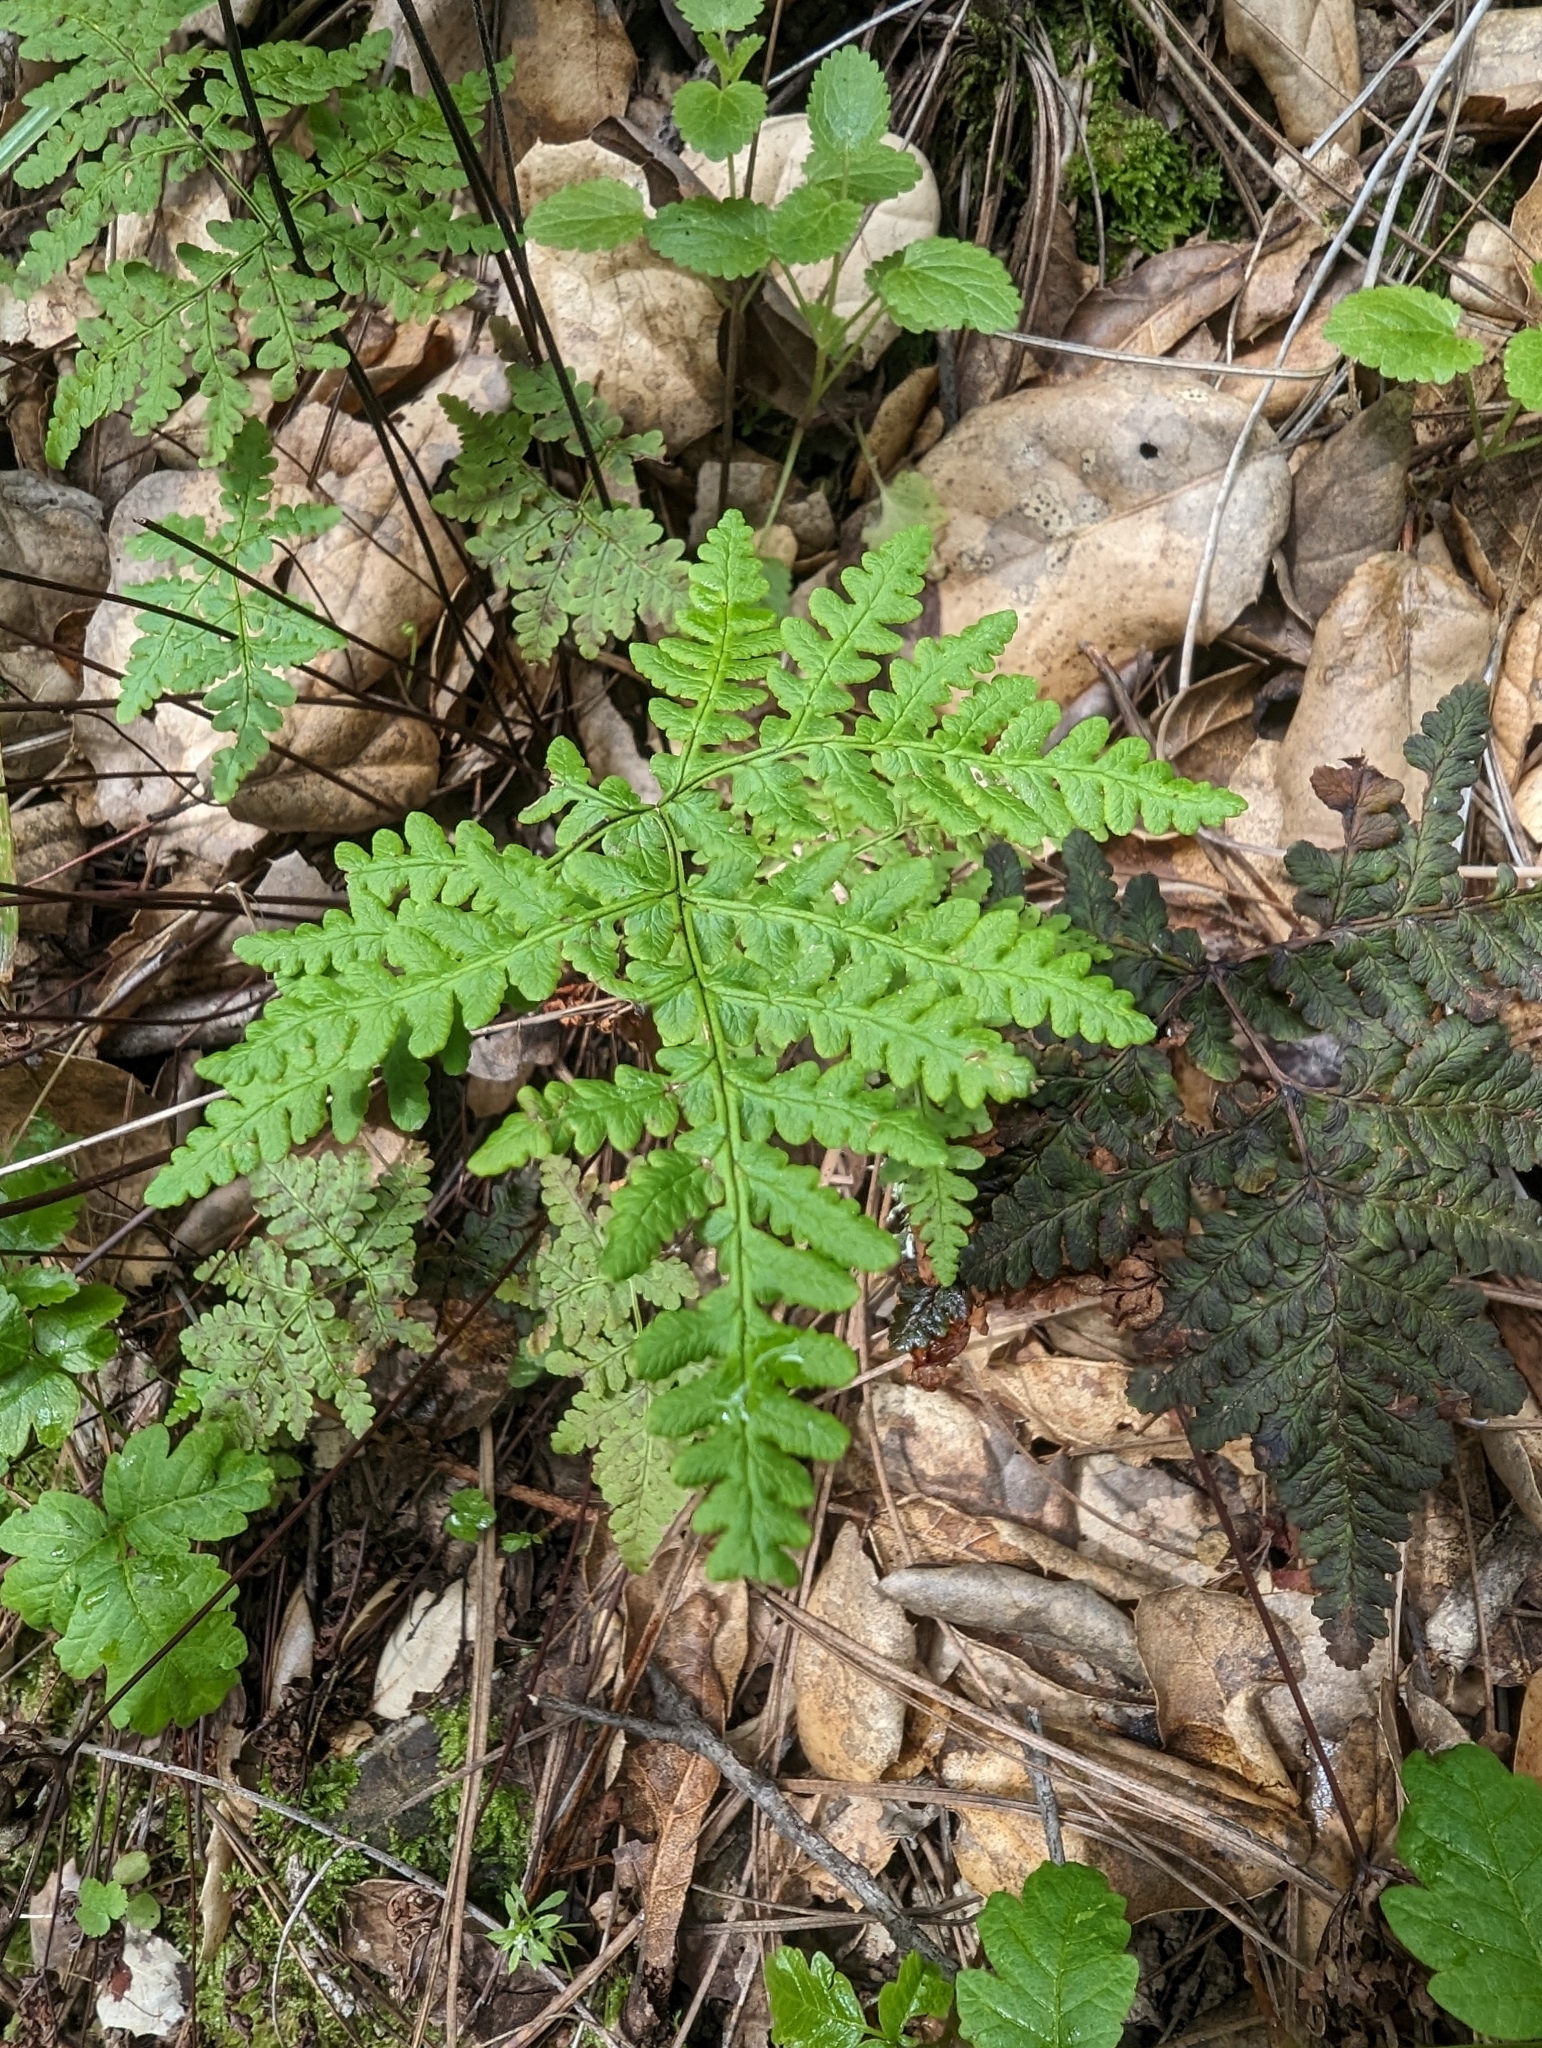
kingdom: Plantae
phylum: Tracheophyta
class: Polypodiopsida
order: Polypodiales
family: Pteridaceae
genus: Pentagramma
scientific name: Pentagramma triangularis
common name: Gold fern
